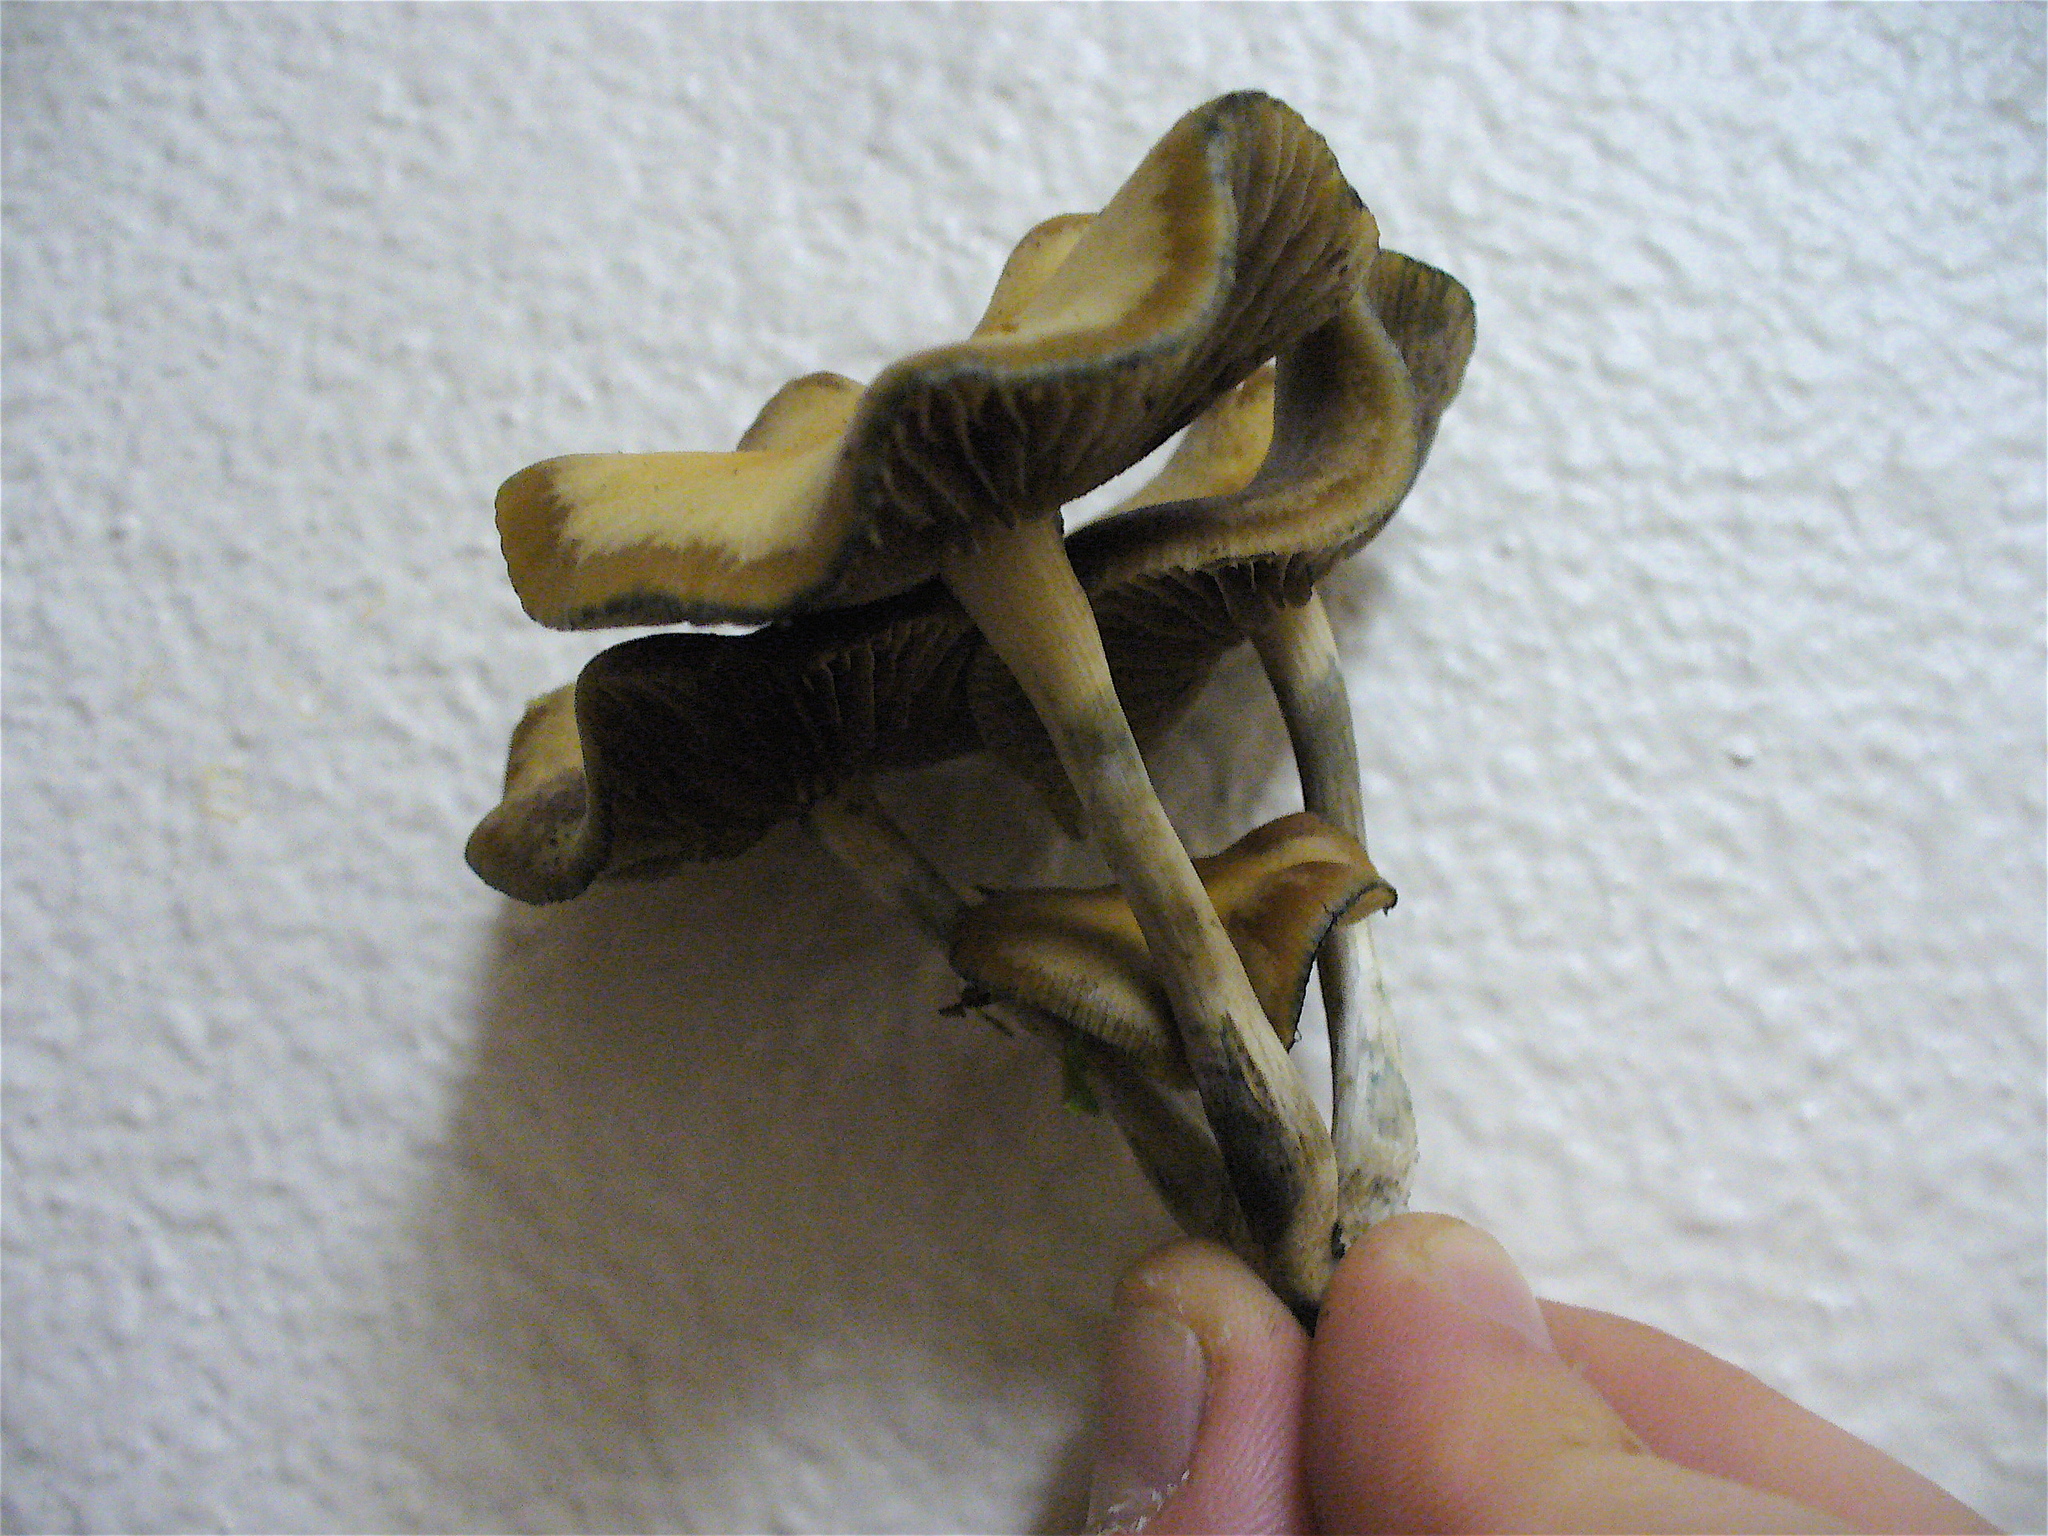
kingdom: Fungi
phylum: Basidiomycota
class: Agaricomycetes
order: Agaricales
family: Hymenogastraceae
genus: Psilocybe
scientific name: Psilocybe cyanescens
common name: Blueleg brownie
